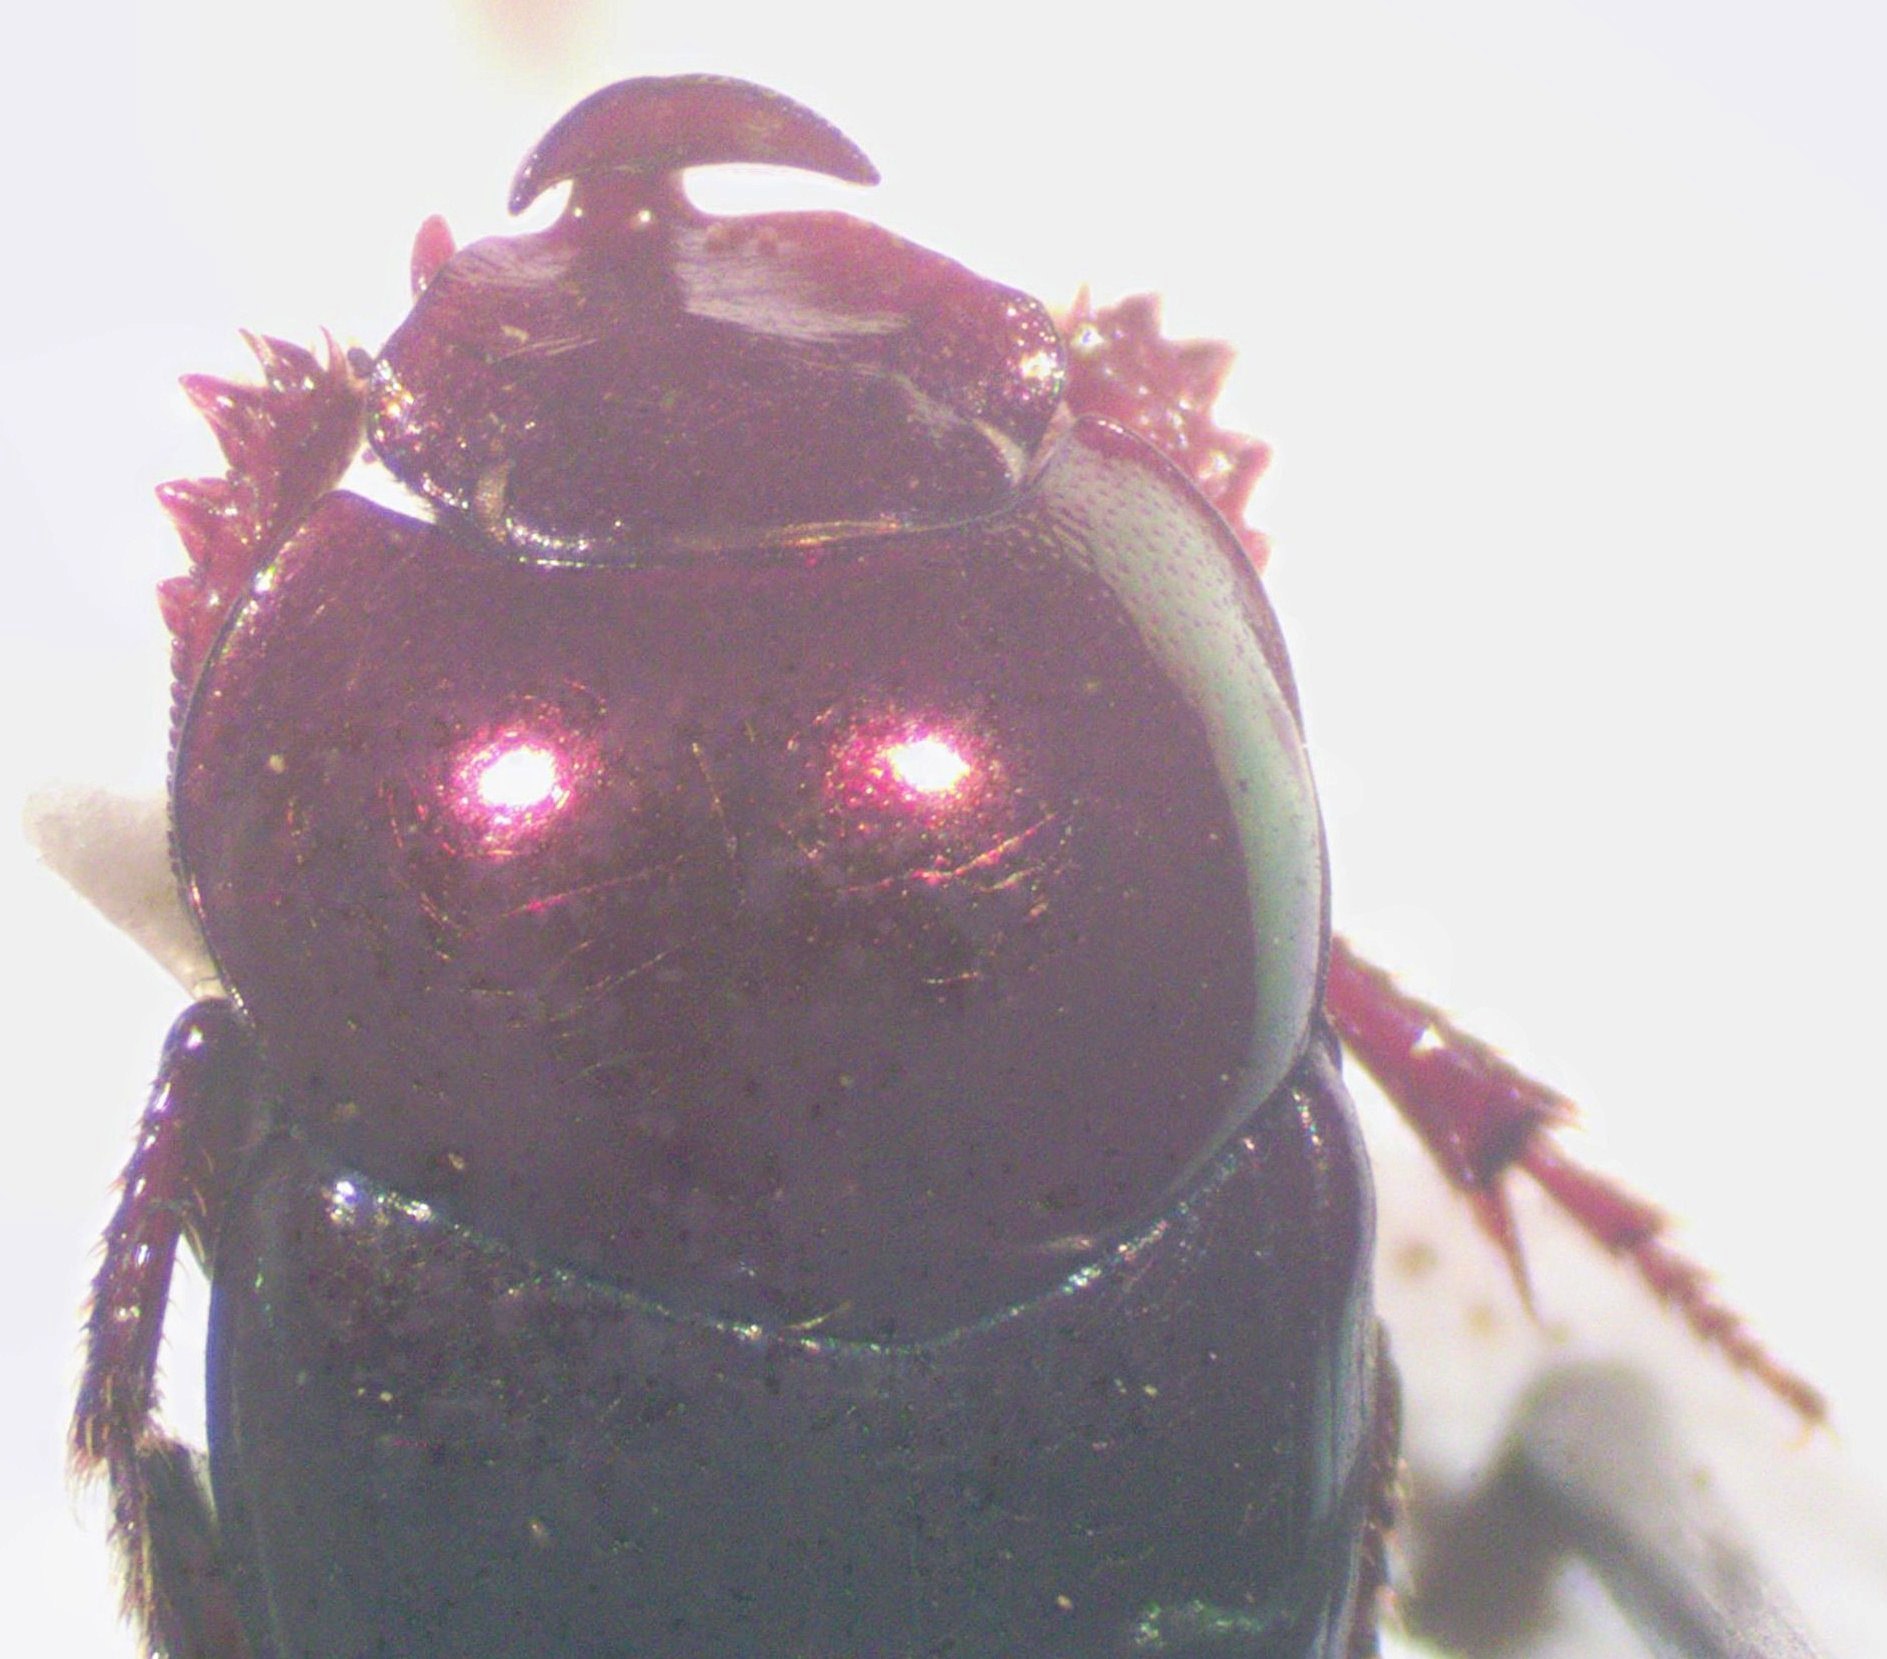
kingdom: Animalia
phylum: Arthropoda
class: Insecta
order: Coleoptera
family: Scarabaeidae
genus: Onthophagus
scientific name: Onthophagus tapirus
